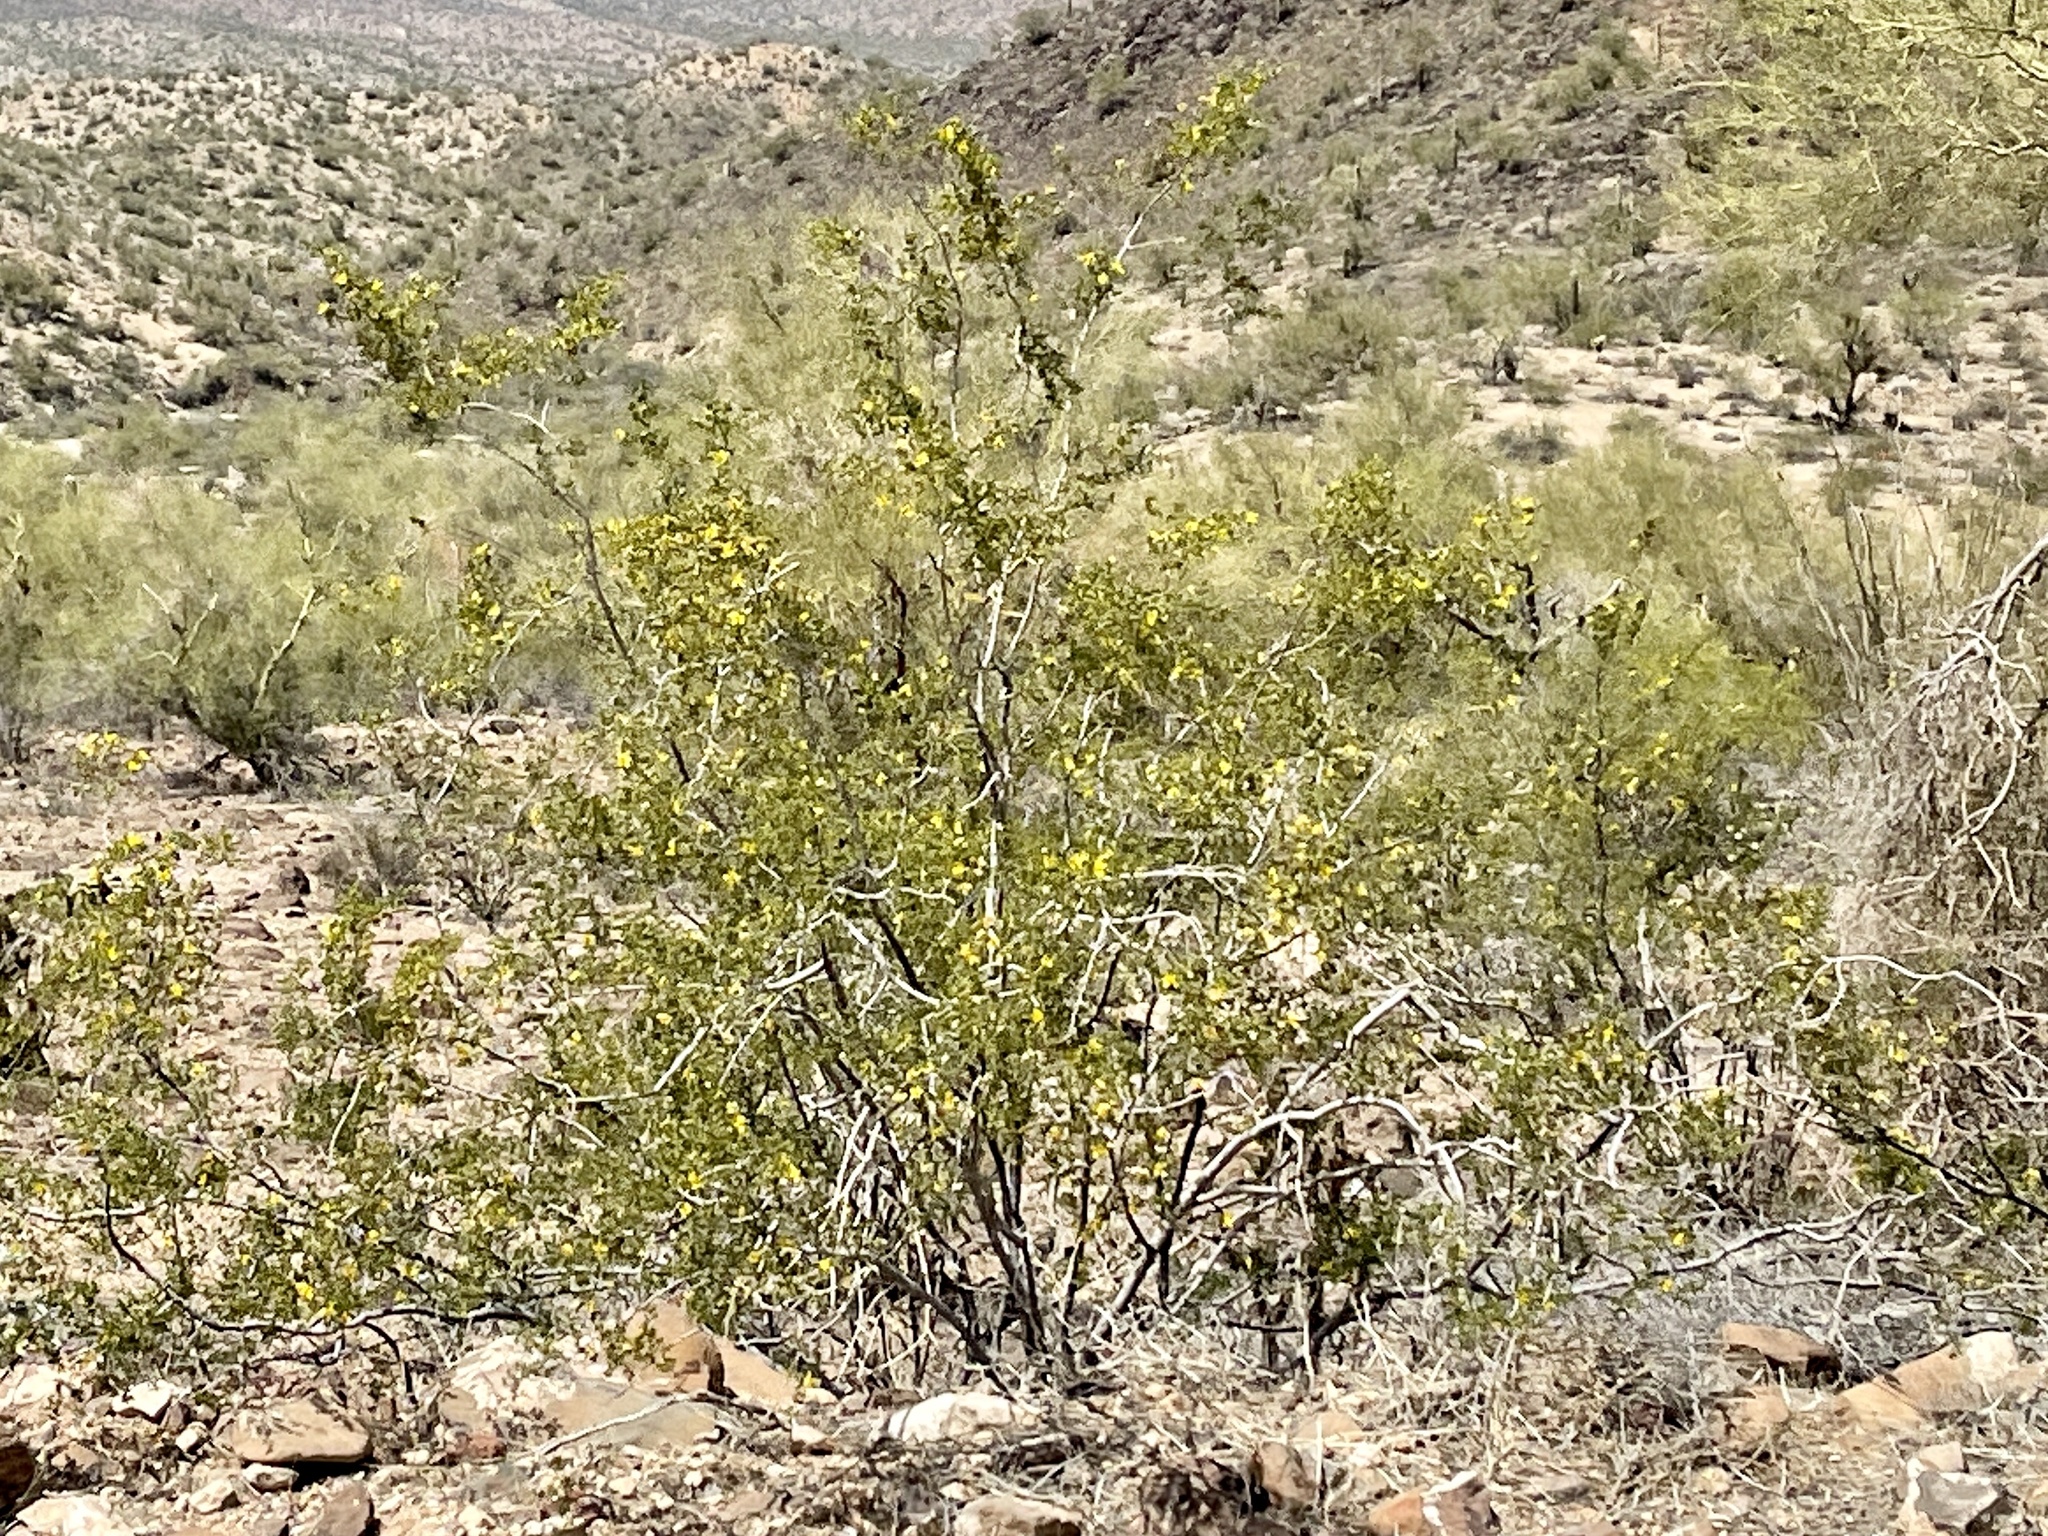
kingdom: Plantae
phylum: Tracheophyta
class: Magnoliopsida
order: Zygophyllales
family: Zygophyllaceae
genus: Larrea
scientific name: Larrea tridentata
